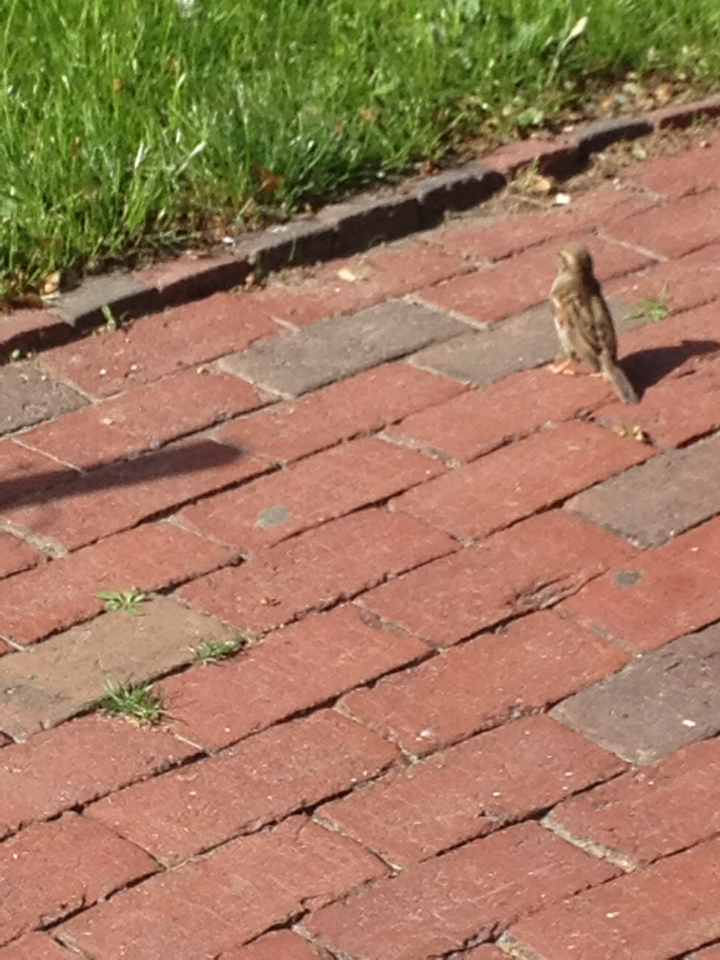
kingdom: Animalia
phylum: Chordata
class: Aves
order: Passeriformes
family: Passeridae
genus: Passer
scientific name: Passer domesticus
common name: House sparrow
